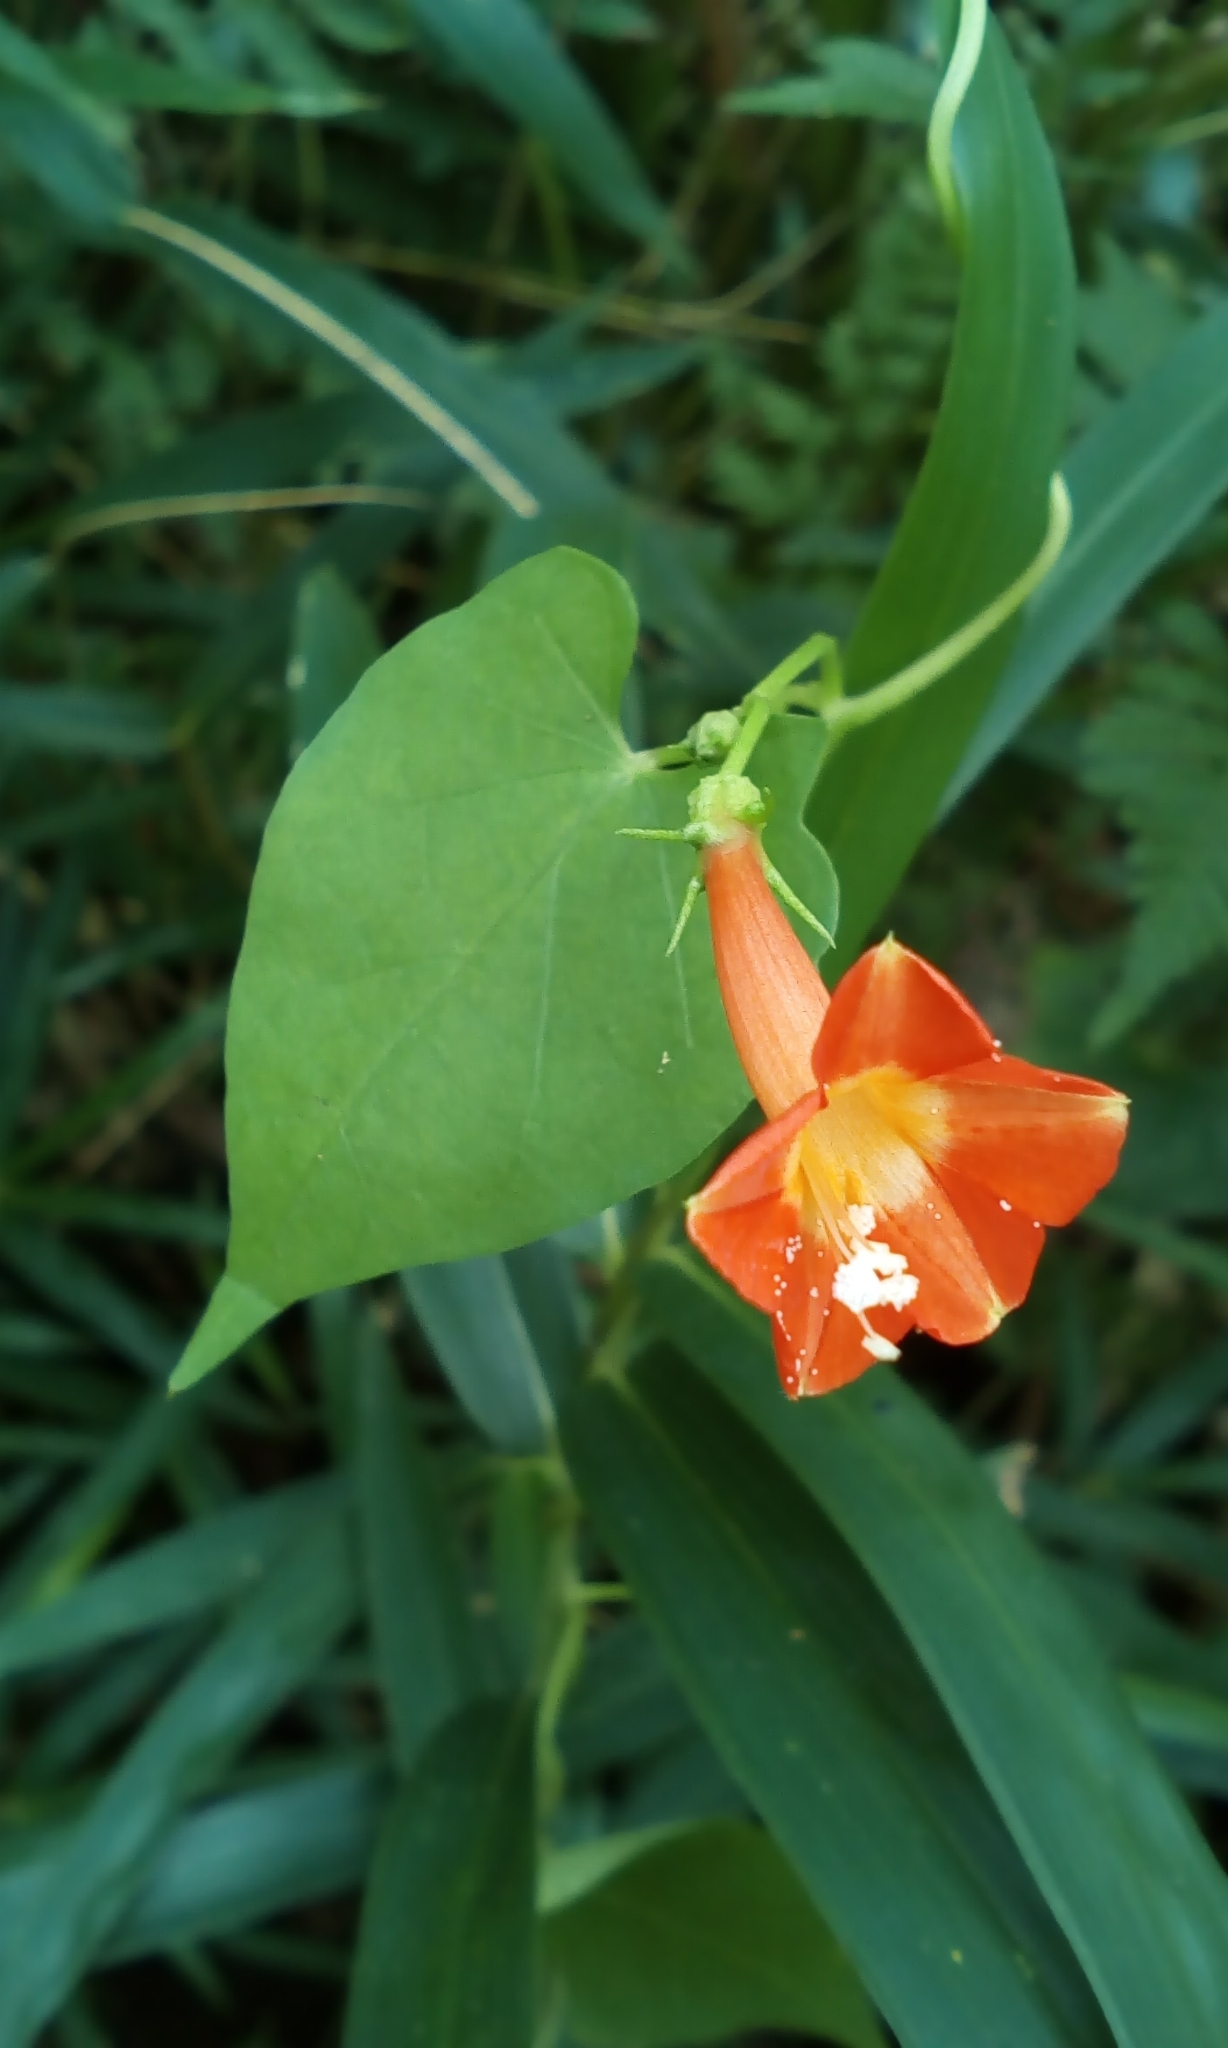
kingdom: Plantae
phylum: Tracheophyta
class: Magnoliopsida
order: Solanales
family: Convolvulaceae
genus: Ipomoea
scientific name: Ipomoea coccinea
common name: Red morning-glory
